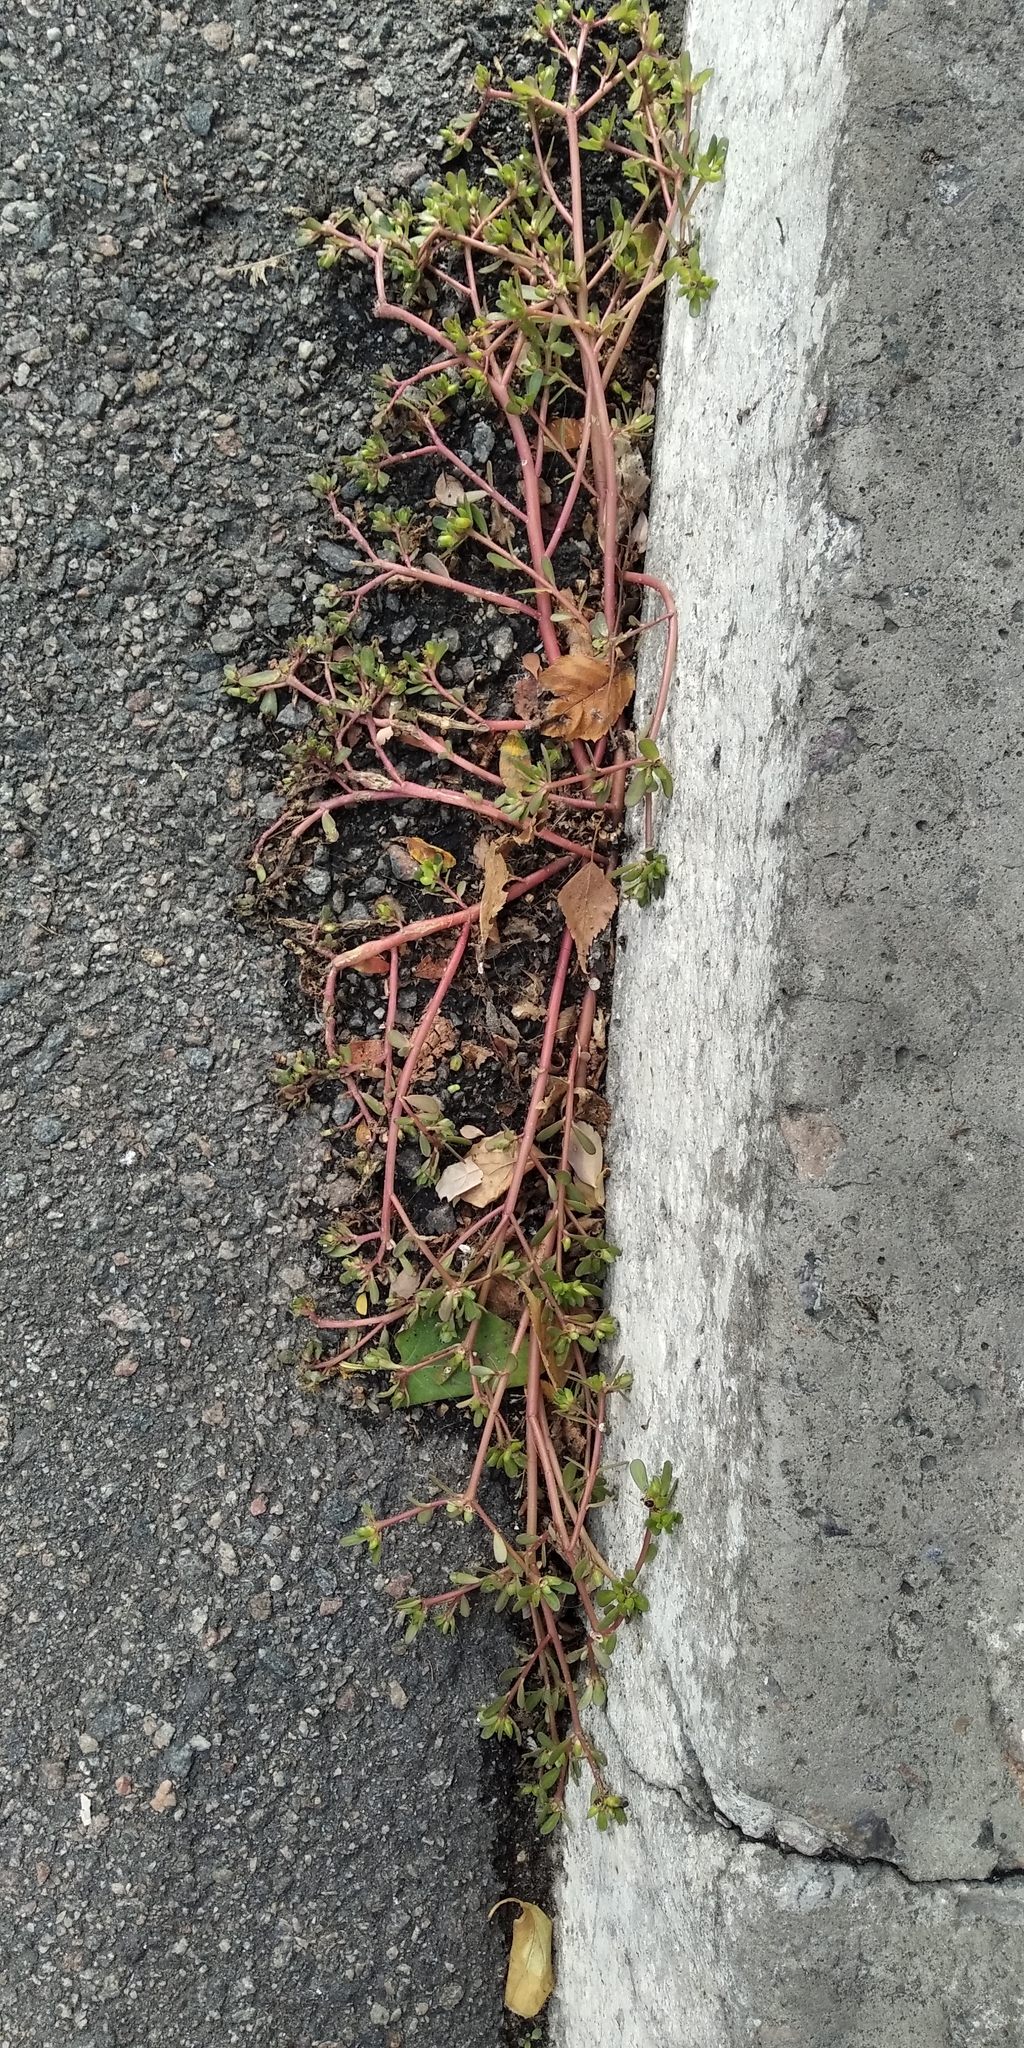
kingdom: Plantae
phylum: Tracheophyta
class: Magnoliopsida
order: Caryophyllales
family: Portulacaceae
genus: Portulaca
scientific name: Portulaca oleracea
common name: Common purslane
